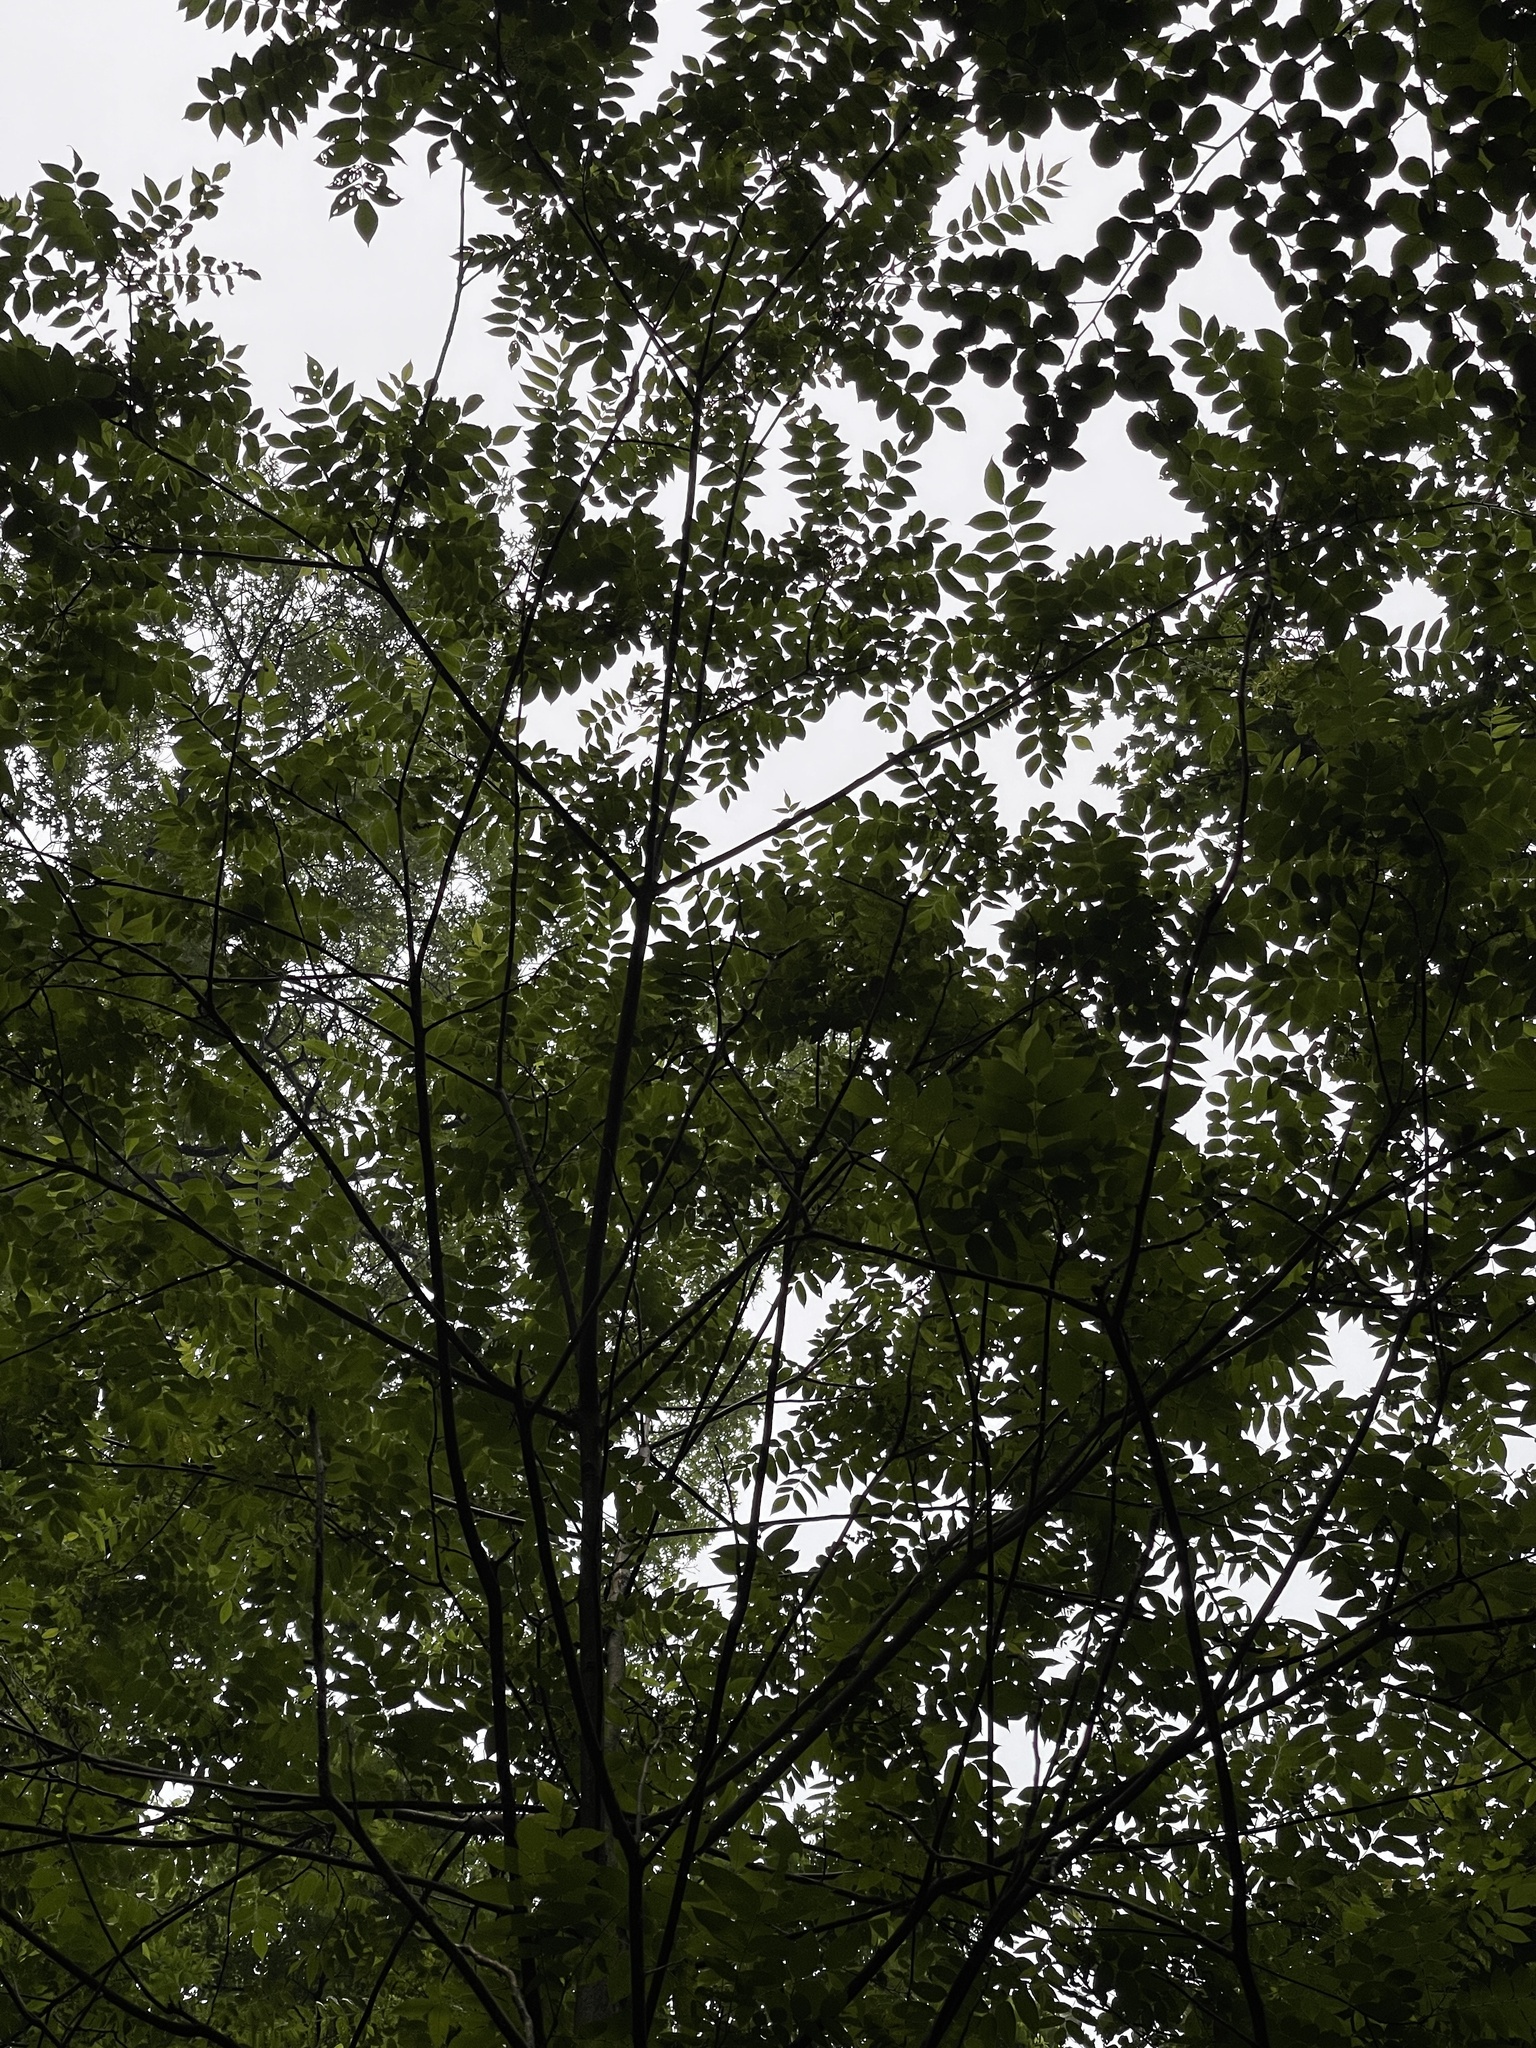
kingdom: Plantae
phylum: Tracheophyta
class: Magnoliopsida
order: Fagales
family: Juglandaceae
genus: Juglans
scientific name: Juglans cinerea
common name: Butternut
